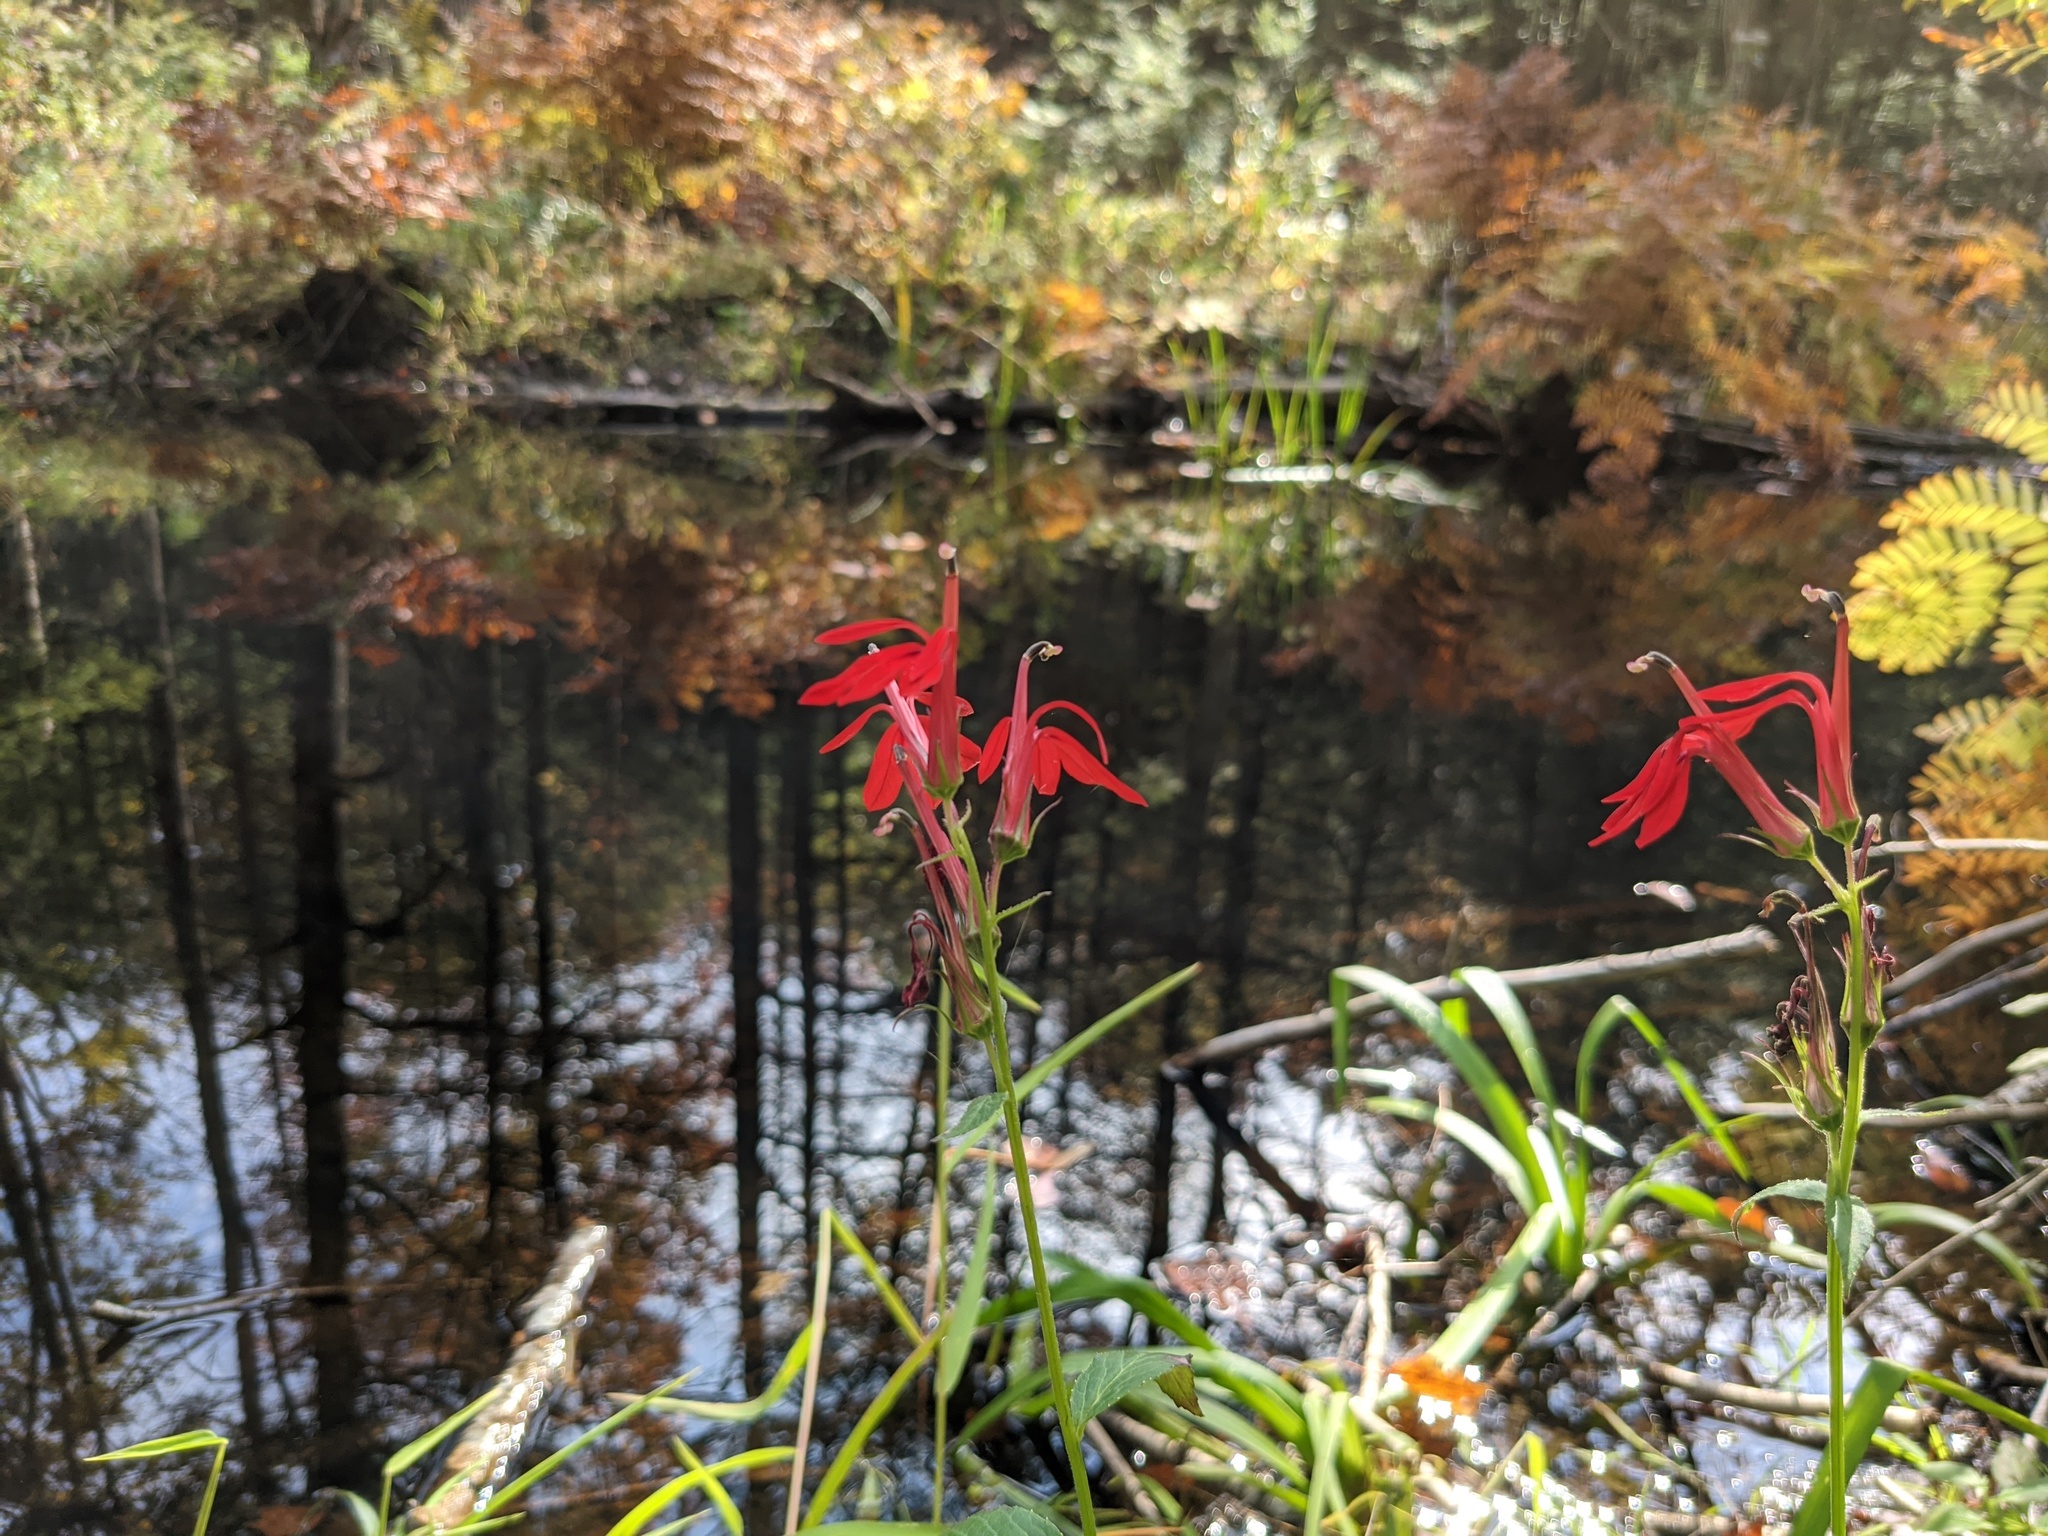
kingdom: Plantae
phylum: Tracheophyta
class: Magnoliopsida
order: Asterales
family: Campanulaceae
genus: Lobelia
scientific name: Lobelia cardinalis
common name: Cardinal flower
